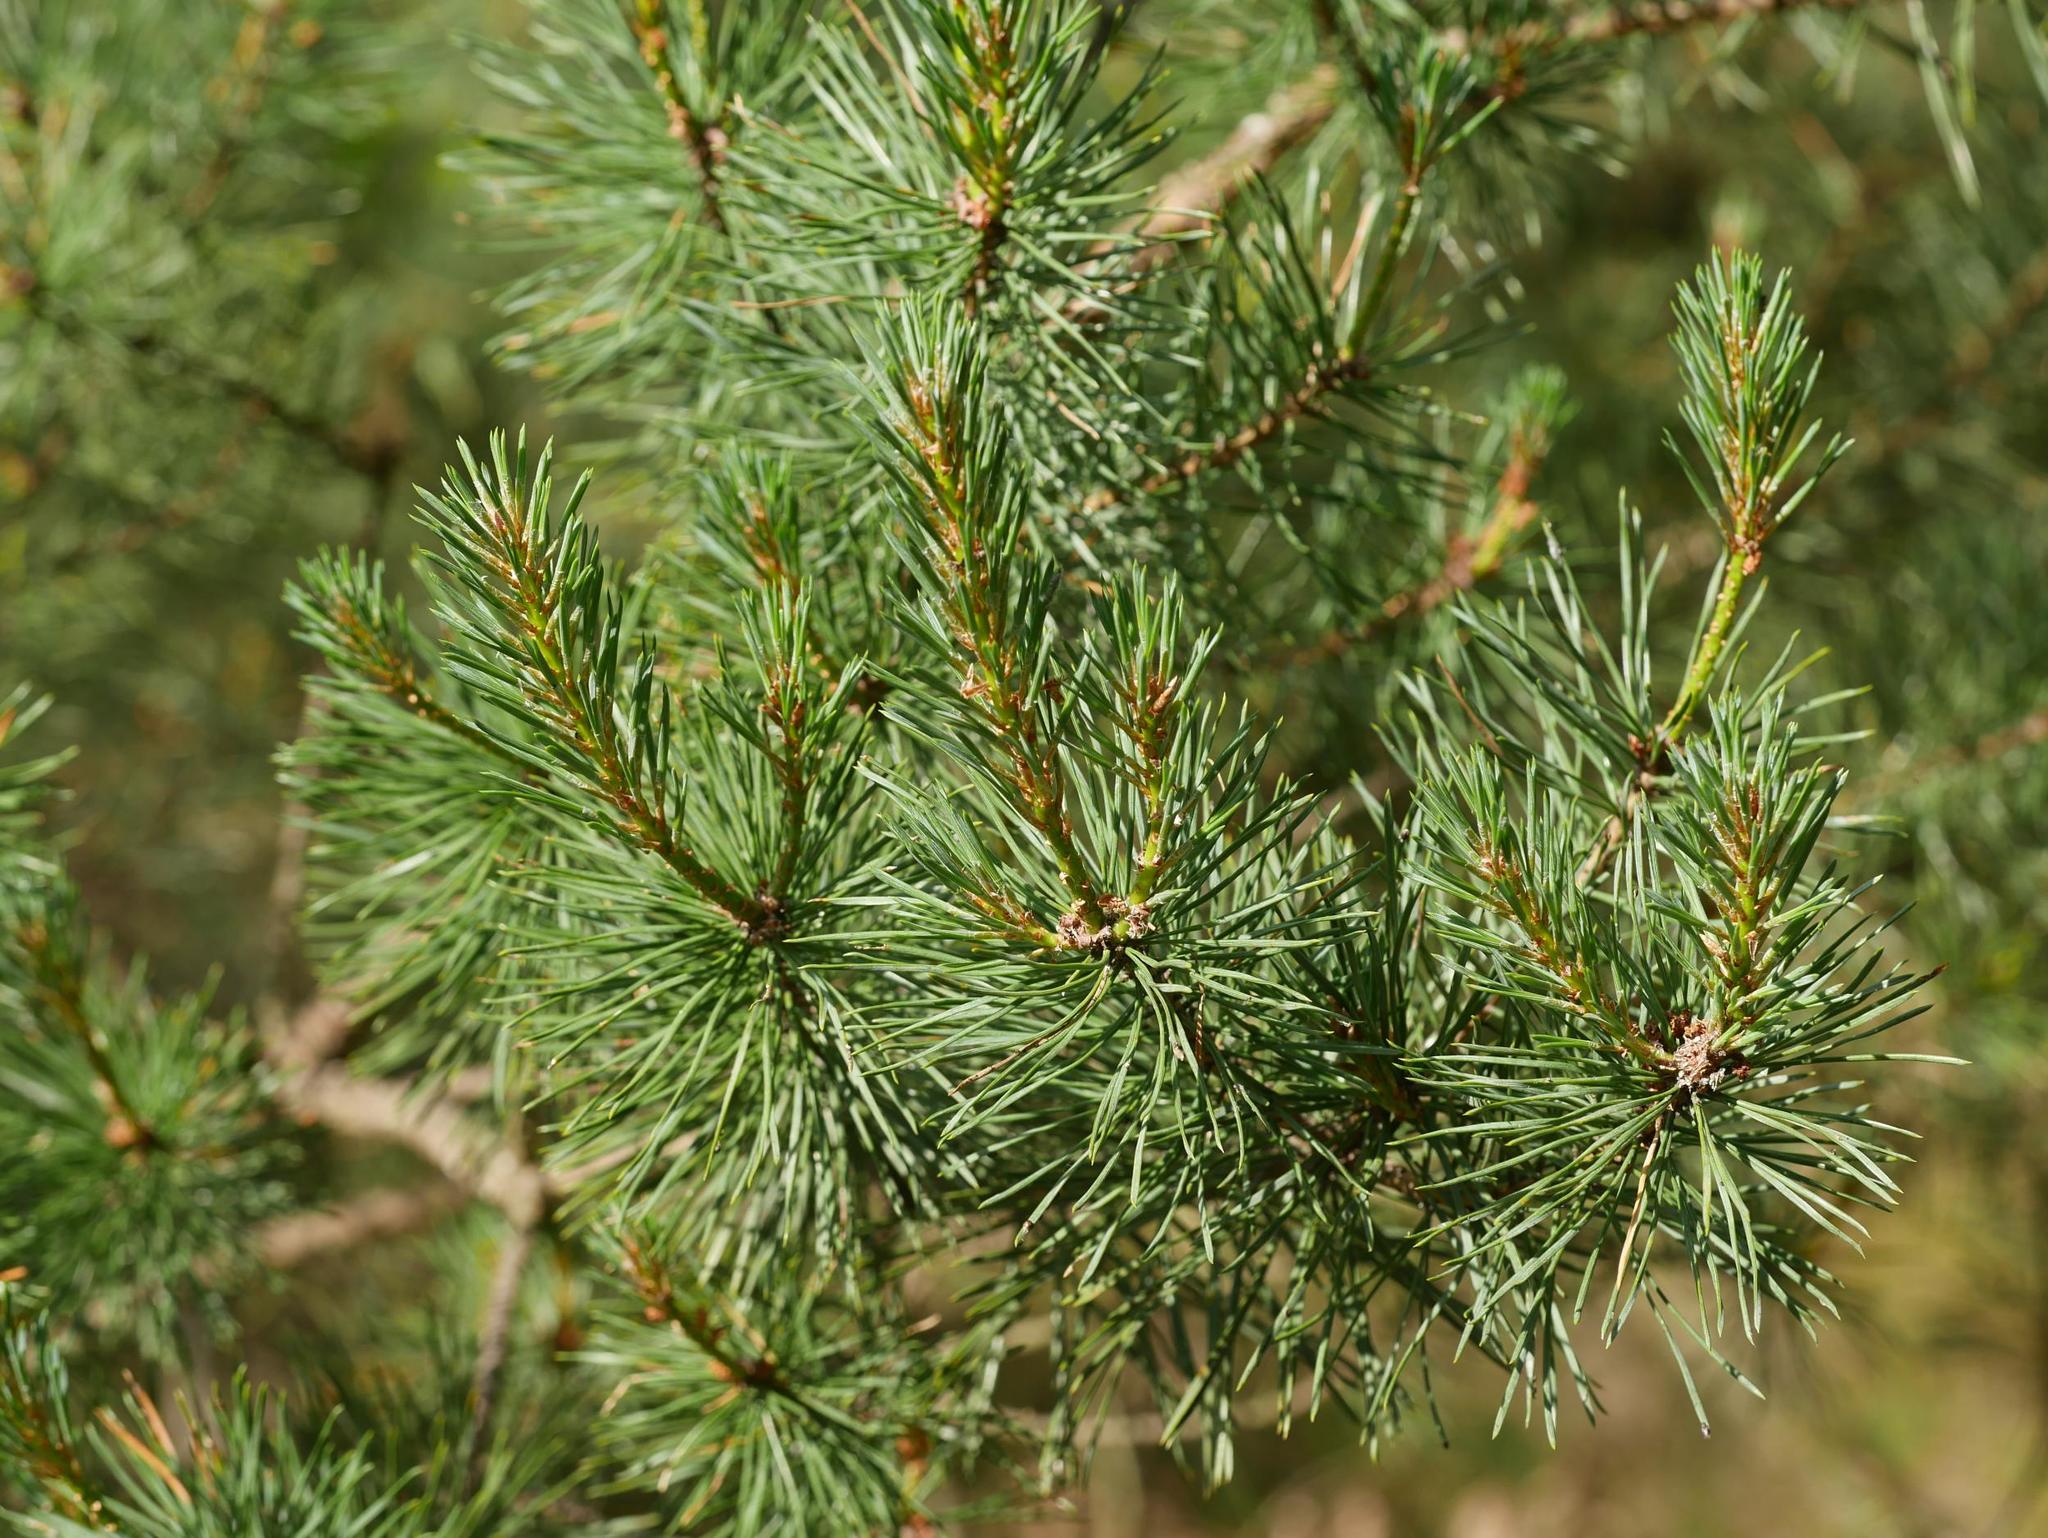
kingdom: Plantae
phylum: Tracheophyta
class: Pinopsida
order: Pinales
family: Pinaceae
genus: Pinus
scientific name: Pinus sylvestris
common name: Scots pine
